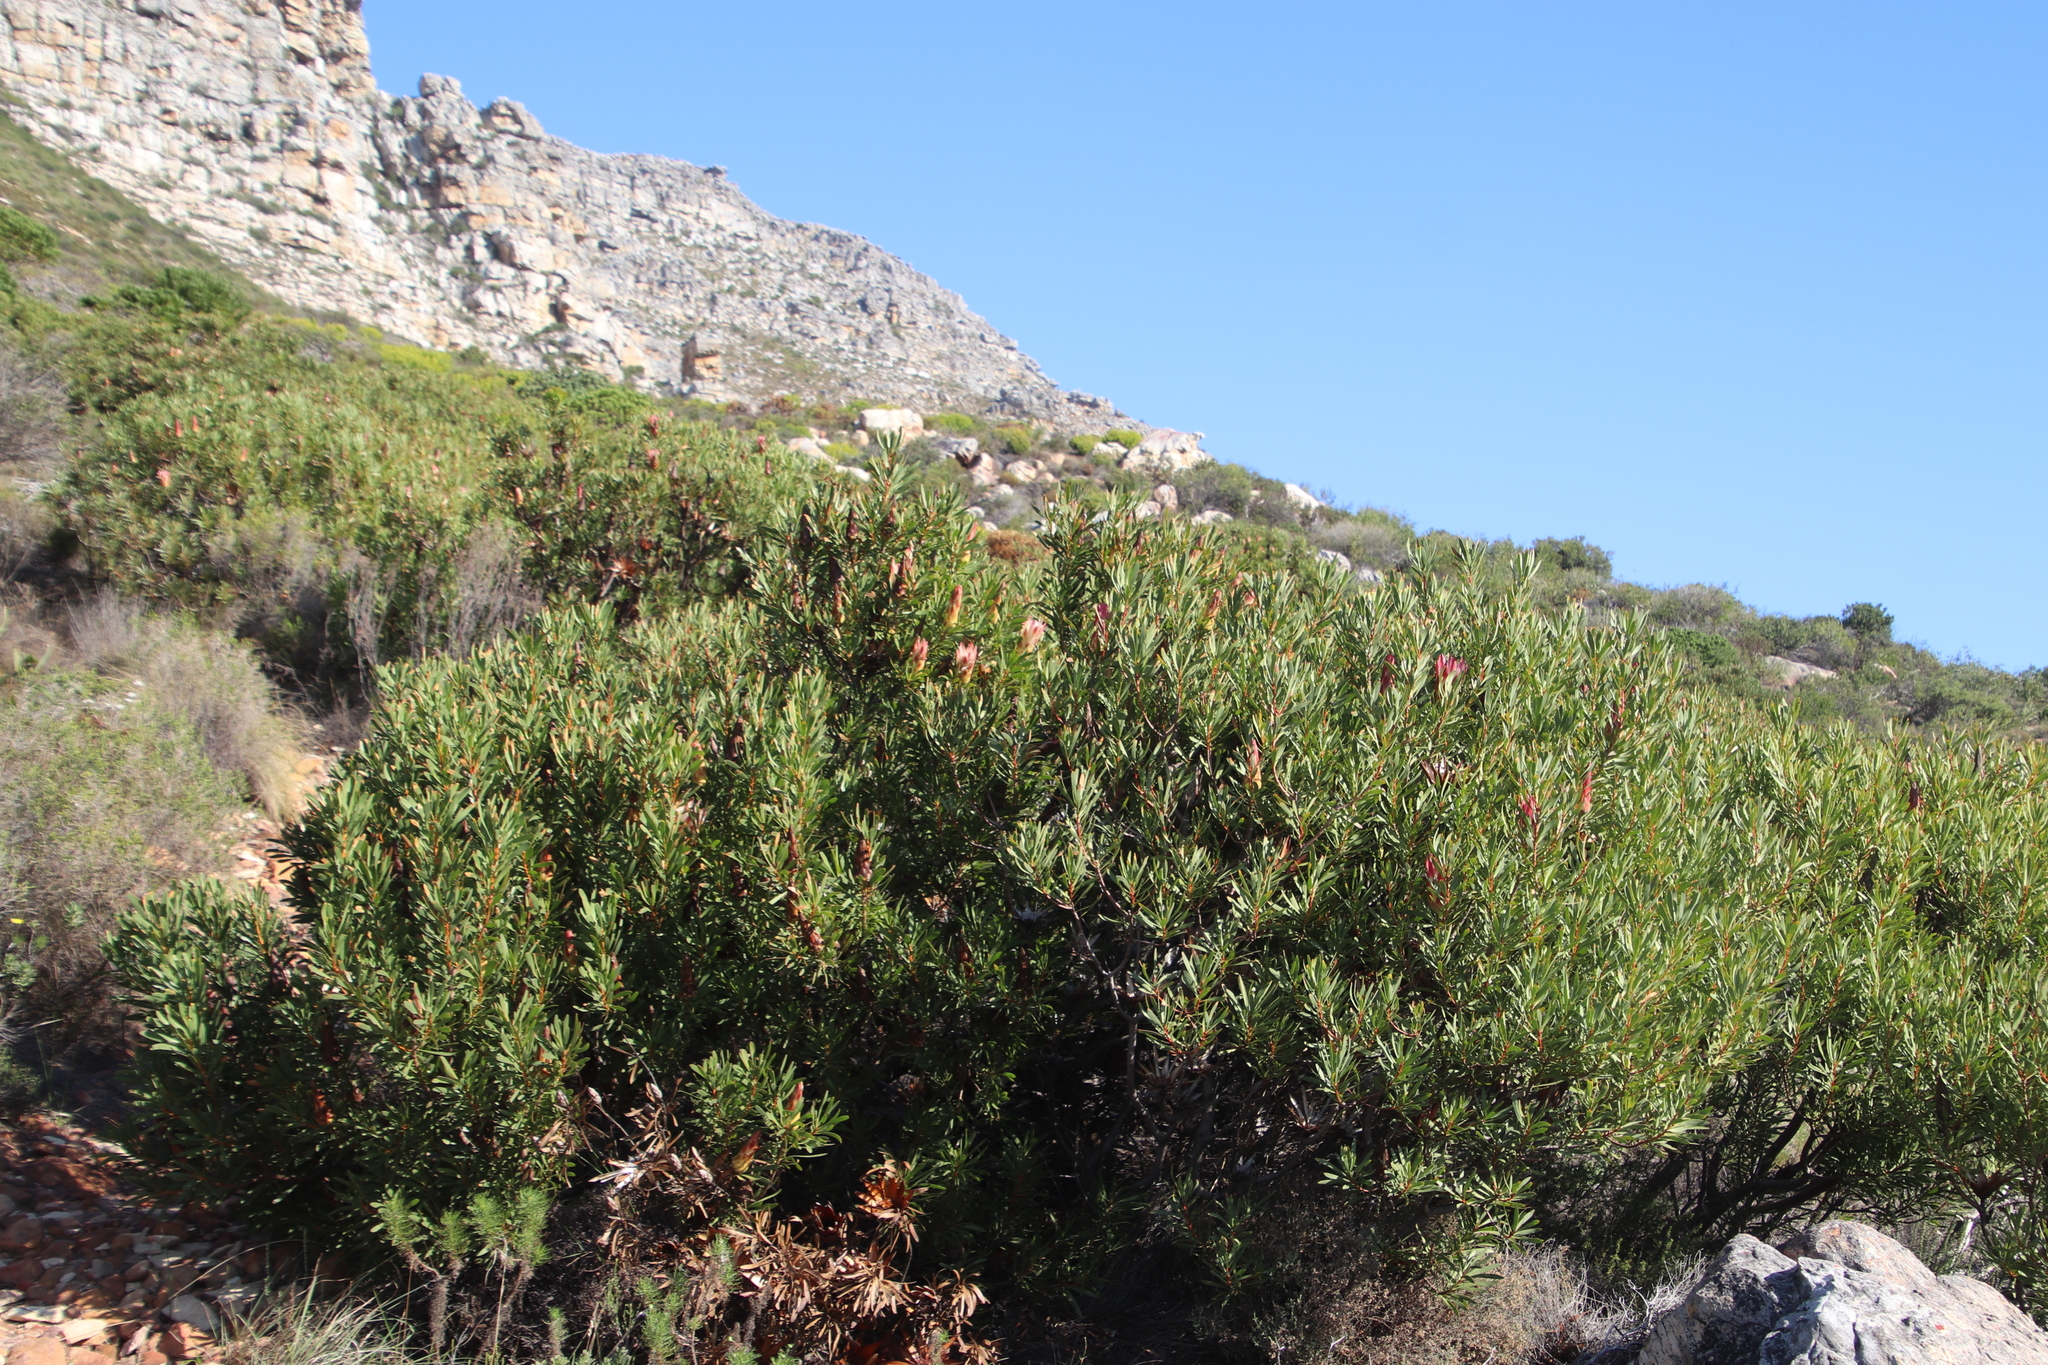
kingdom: Plantae
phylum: Tracheophyta
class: Magnoliopsida
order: Proteales
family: Proteaceae
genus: Protea
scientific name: Protea repens
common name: Sugarbush
